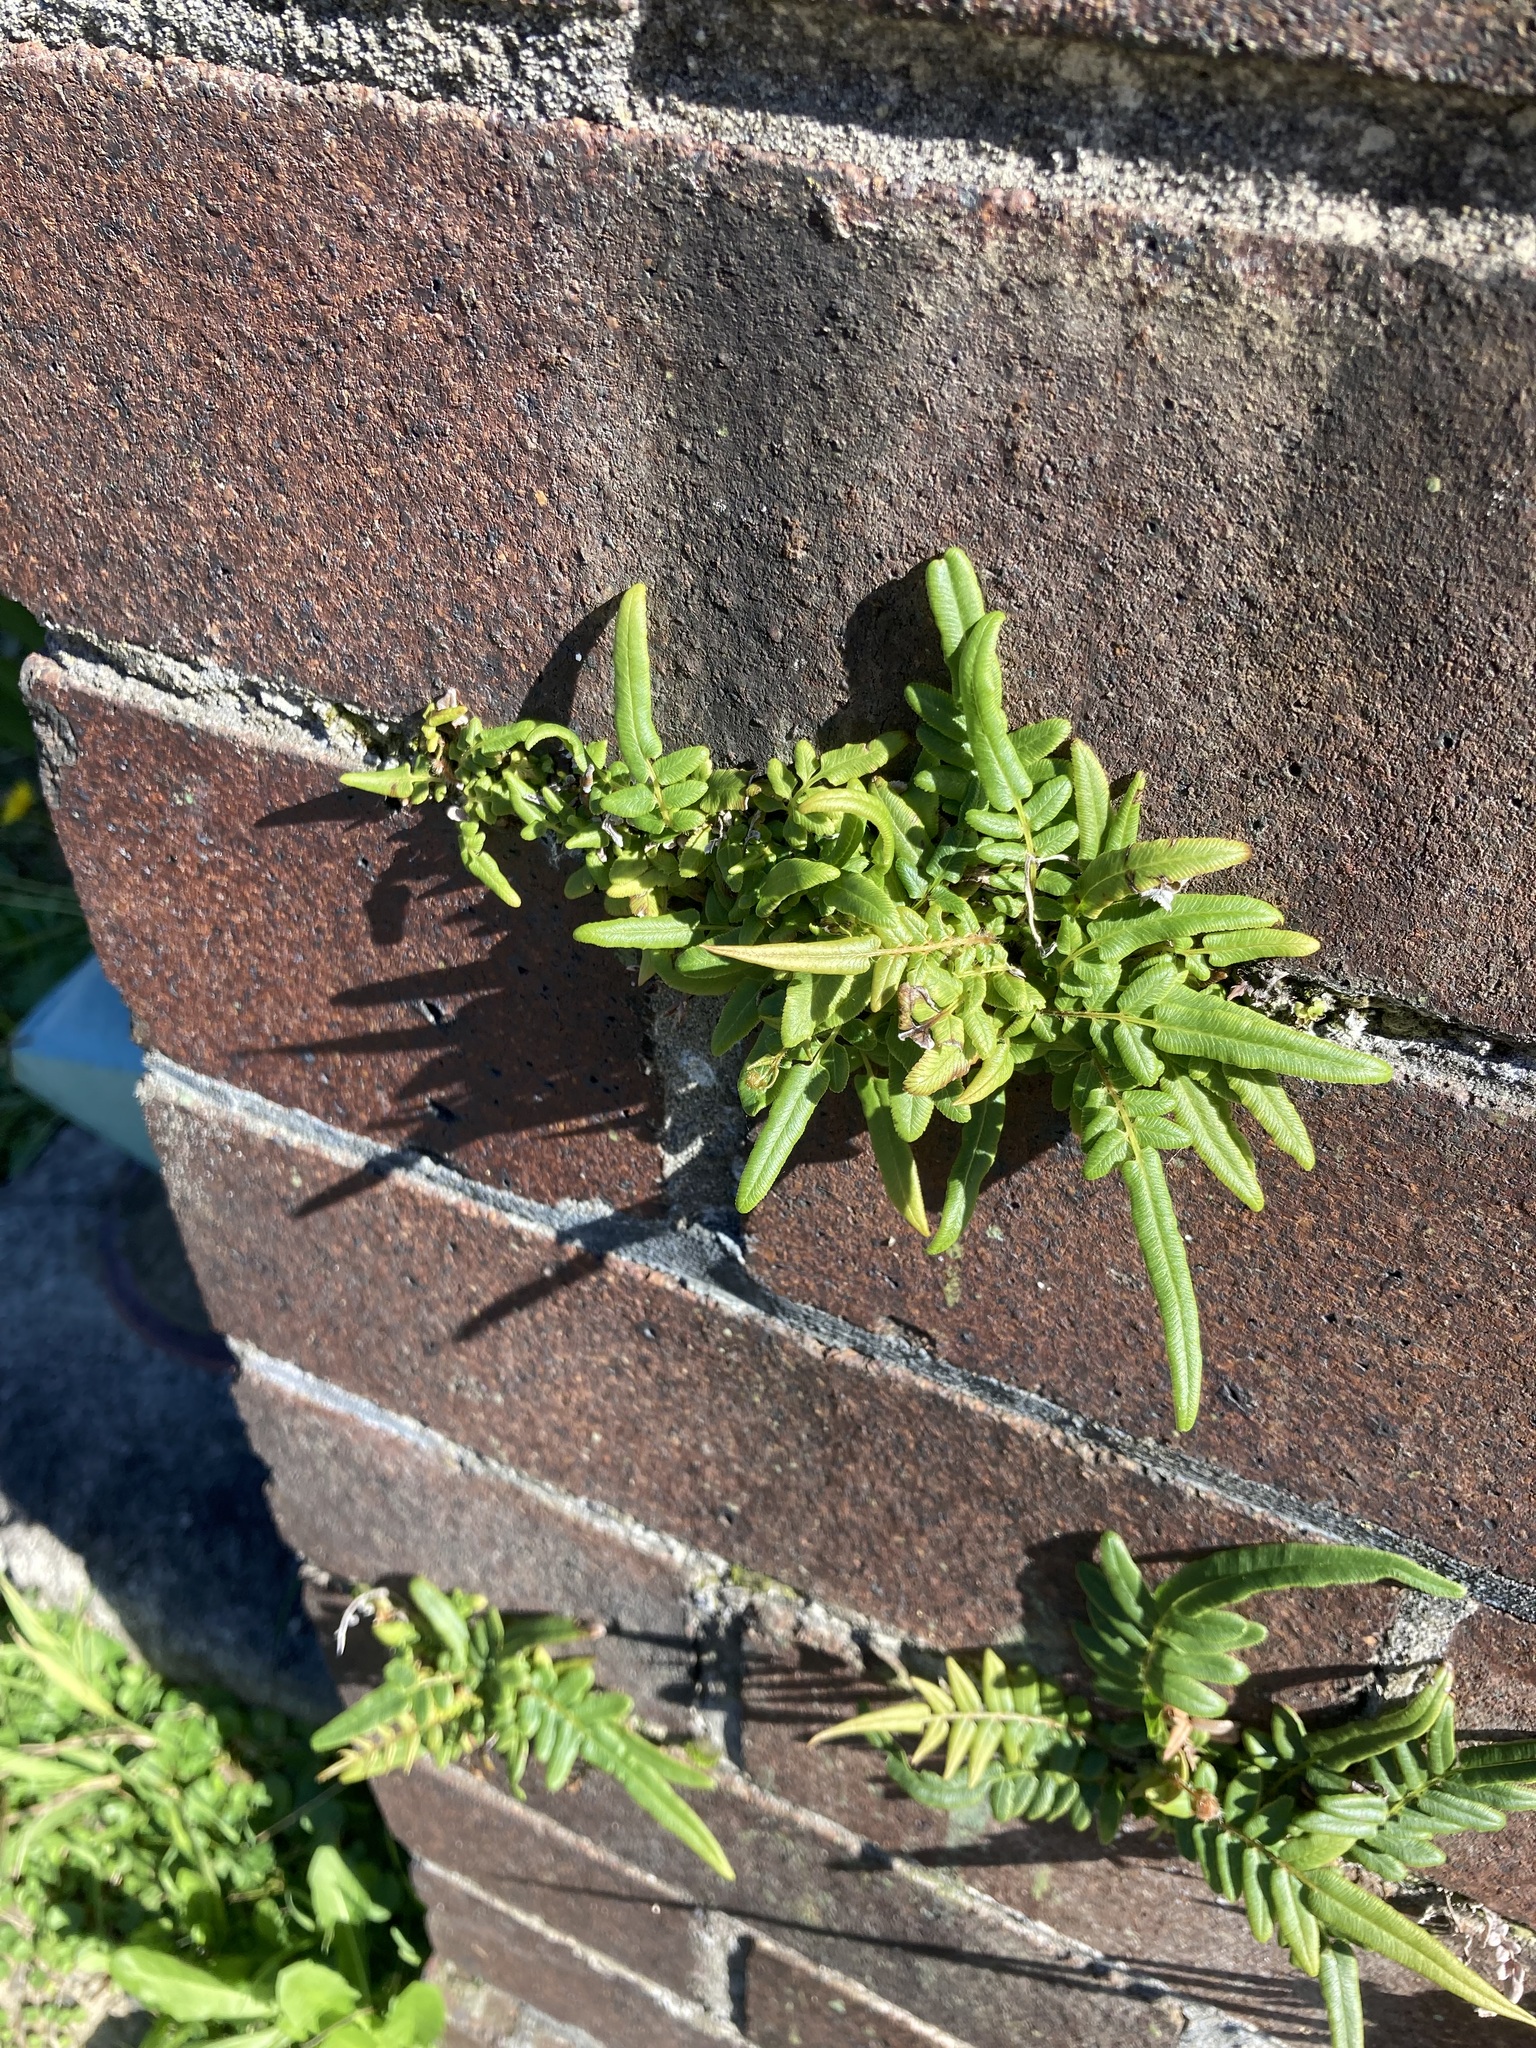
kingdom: Plantae
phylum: Tracheophyta
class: Polypodiopsida
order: Polypodiales
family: Pteridaceae
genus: Pteris
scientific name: Pteris vittata
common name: Ladder brake
